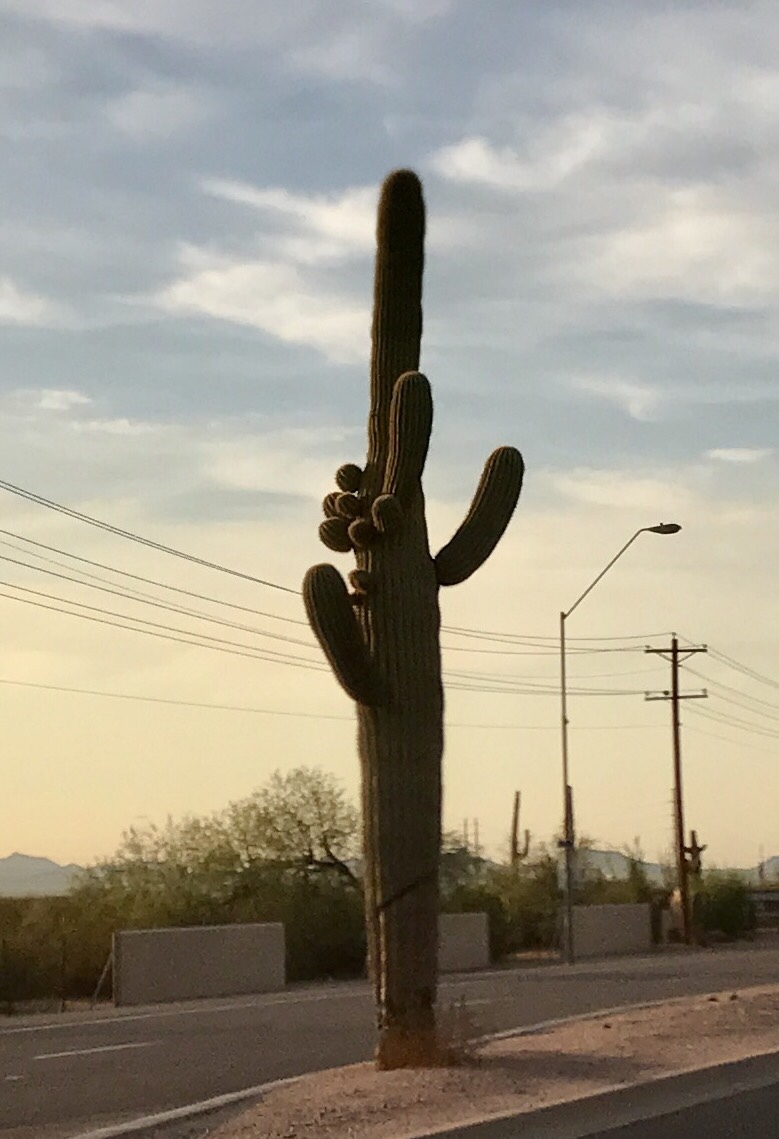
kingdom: Plantae
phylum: Tracheophyta
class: Magnoliopsida
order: Caryophyllales
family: Cactaceae
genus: Carnegiea
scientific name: Carnegiea gigantea
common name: Saguaro
